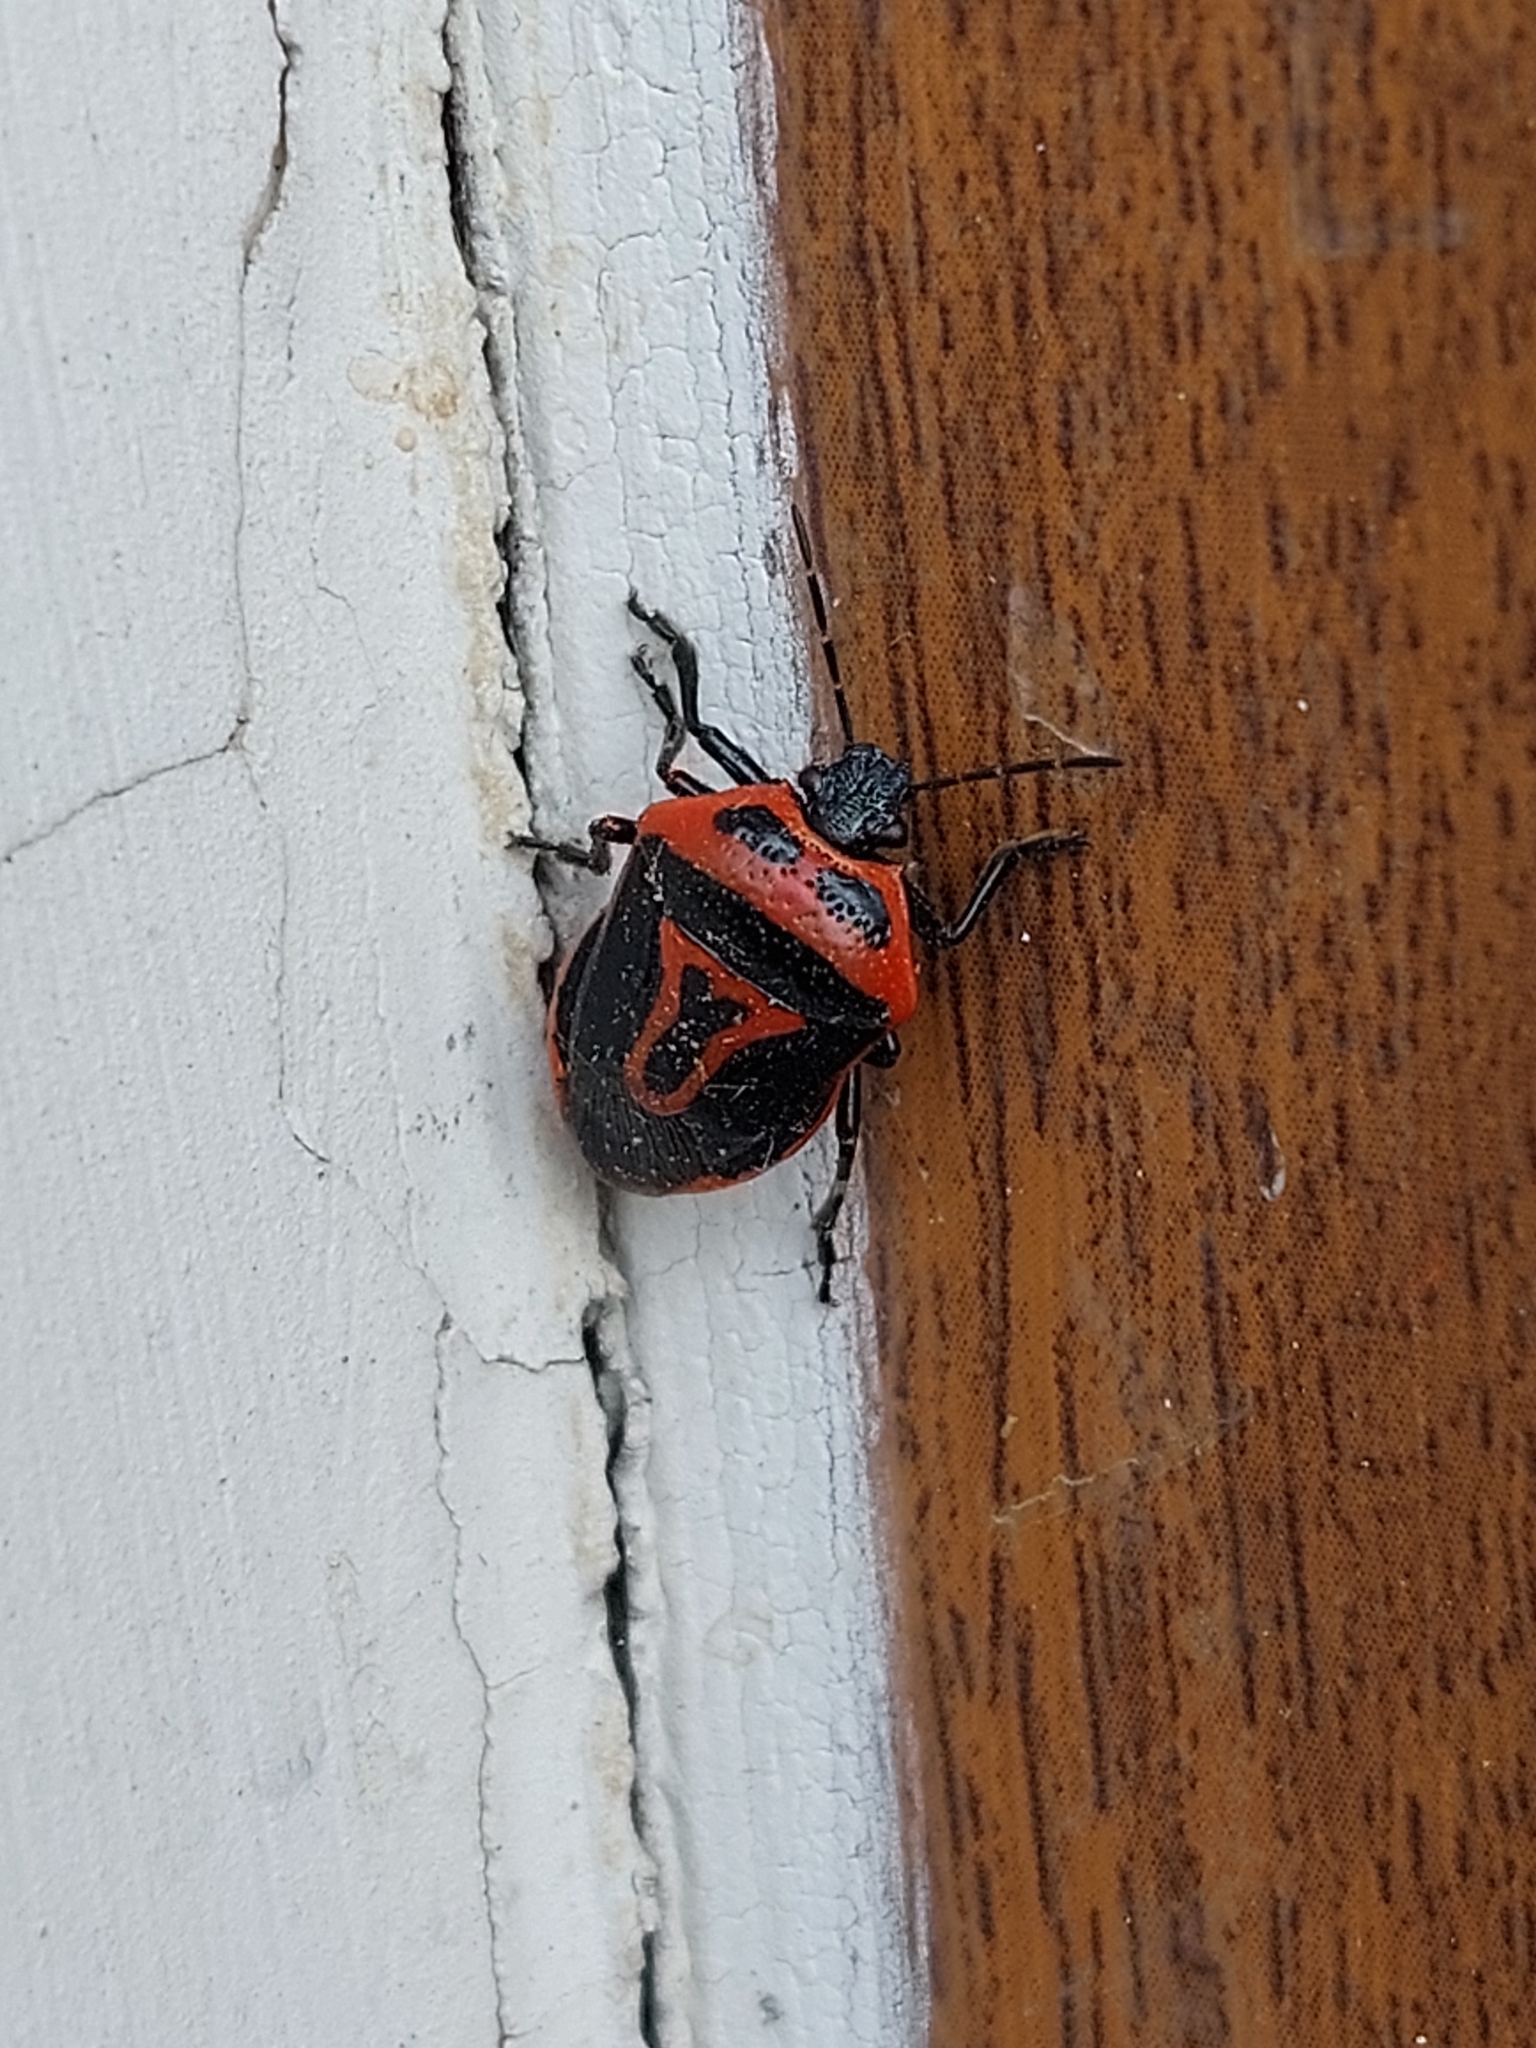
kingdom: Animalia
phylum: Arthropoda
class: Insecta
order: Hemiptera
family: Pentatomidae
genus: Perillus
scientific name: Perillus bioculatus
